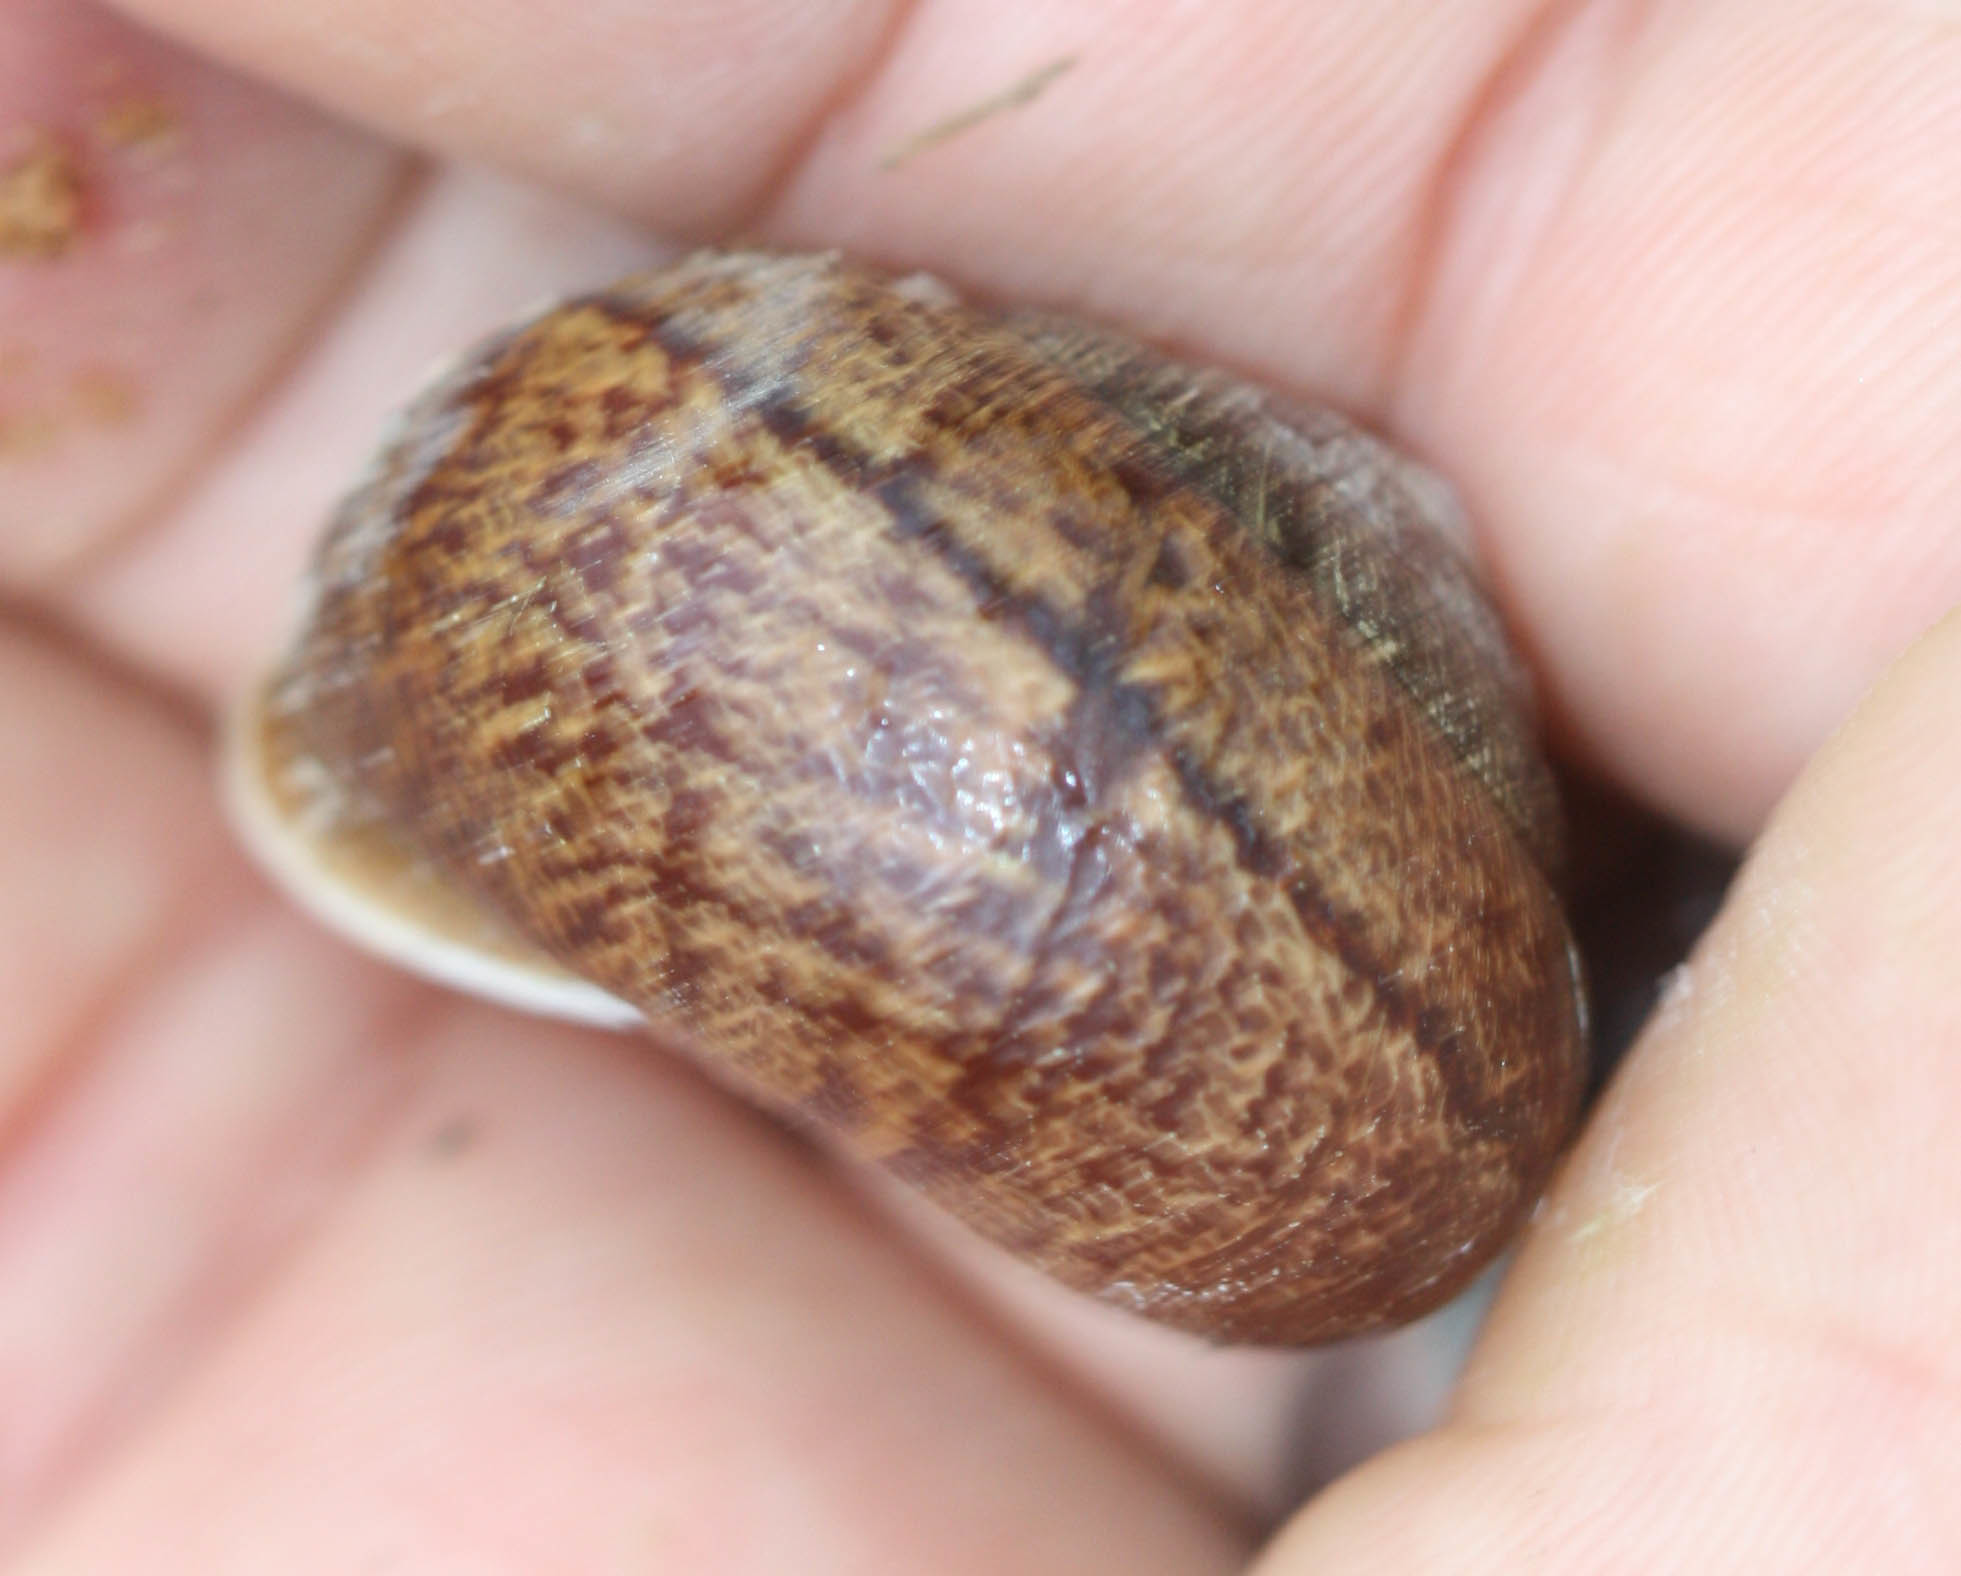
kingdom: Animalia
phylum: Mollusca
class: Gastropoda
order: Stylommatophora
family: Xanthonychidae
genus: Helminthoglypta
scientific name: Helminthoglypta arrosa
